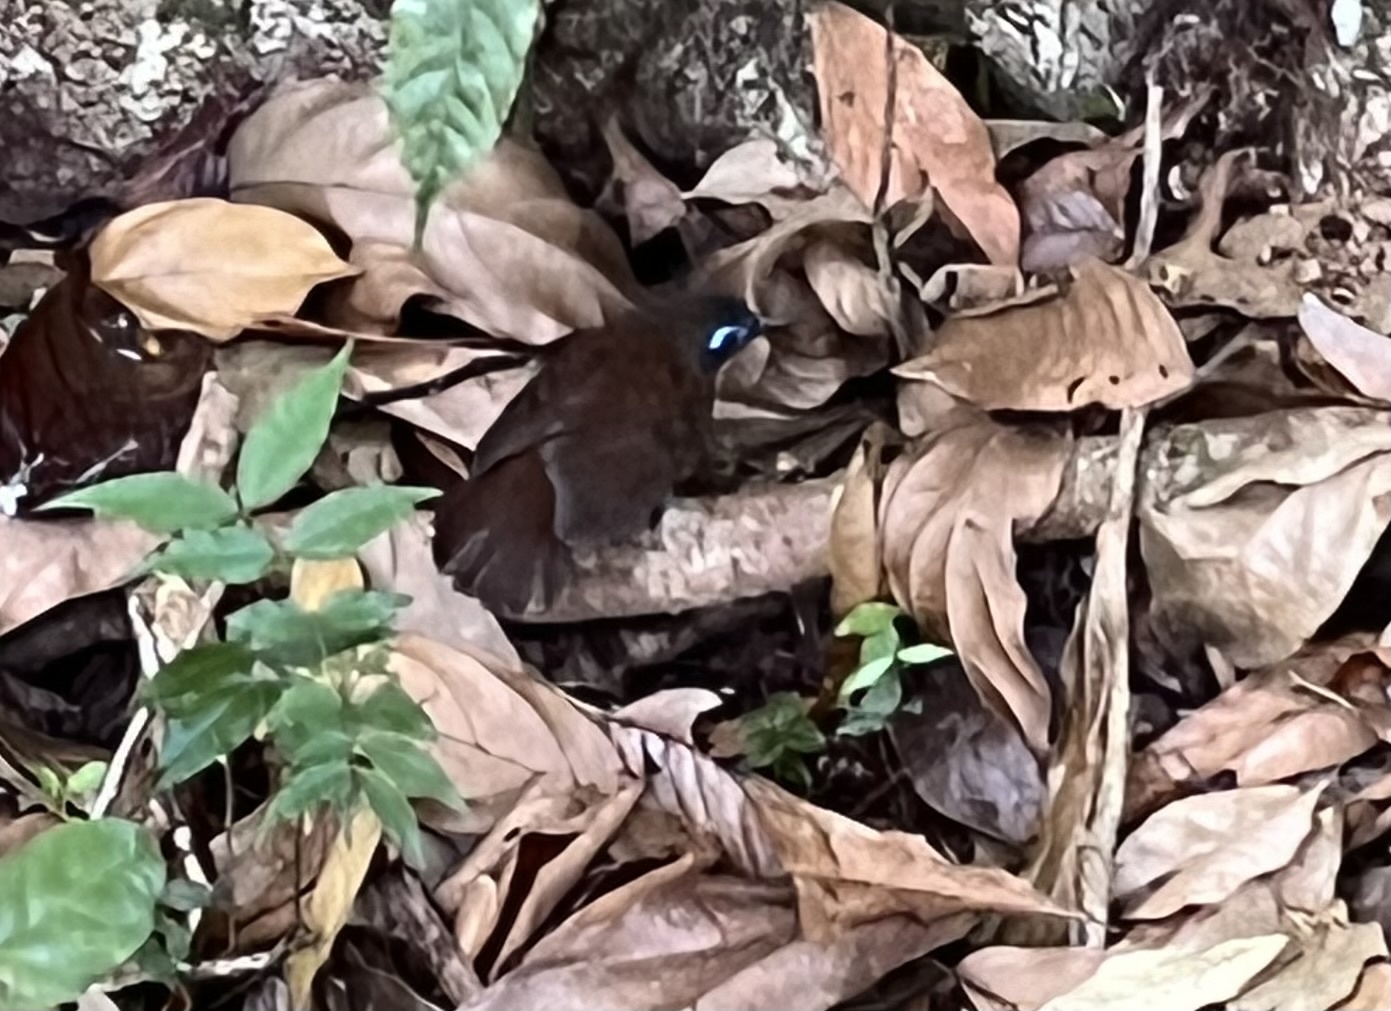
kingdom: Animalia
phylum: Chordata
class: Aves
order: Passeriformes
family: Thamnophilidae
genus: Myrmeciza
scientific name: Myrmeciza exsul
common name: Chestnut-backed antbird
